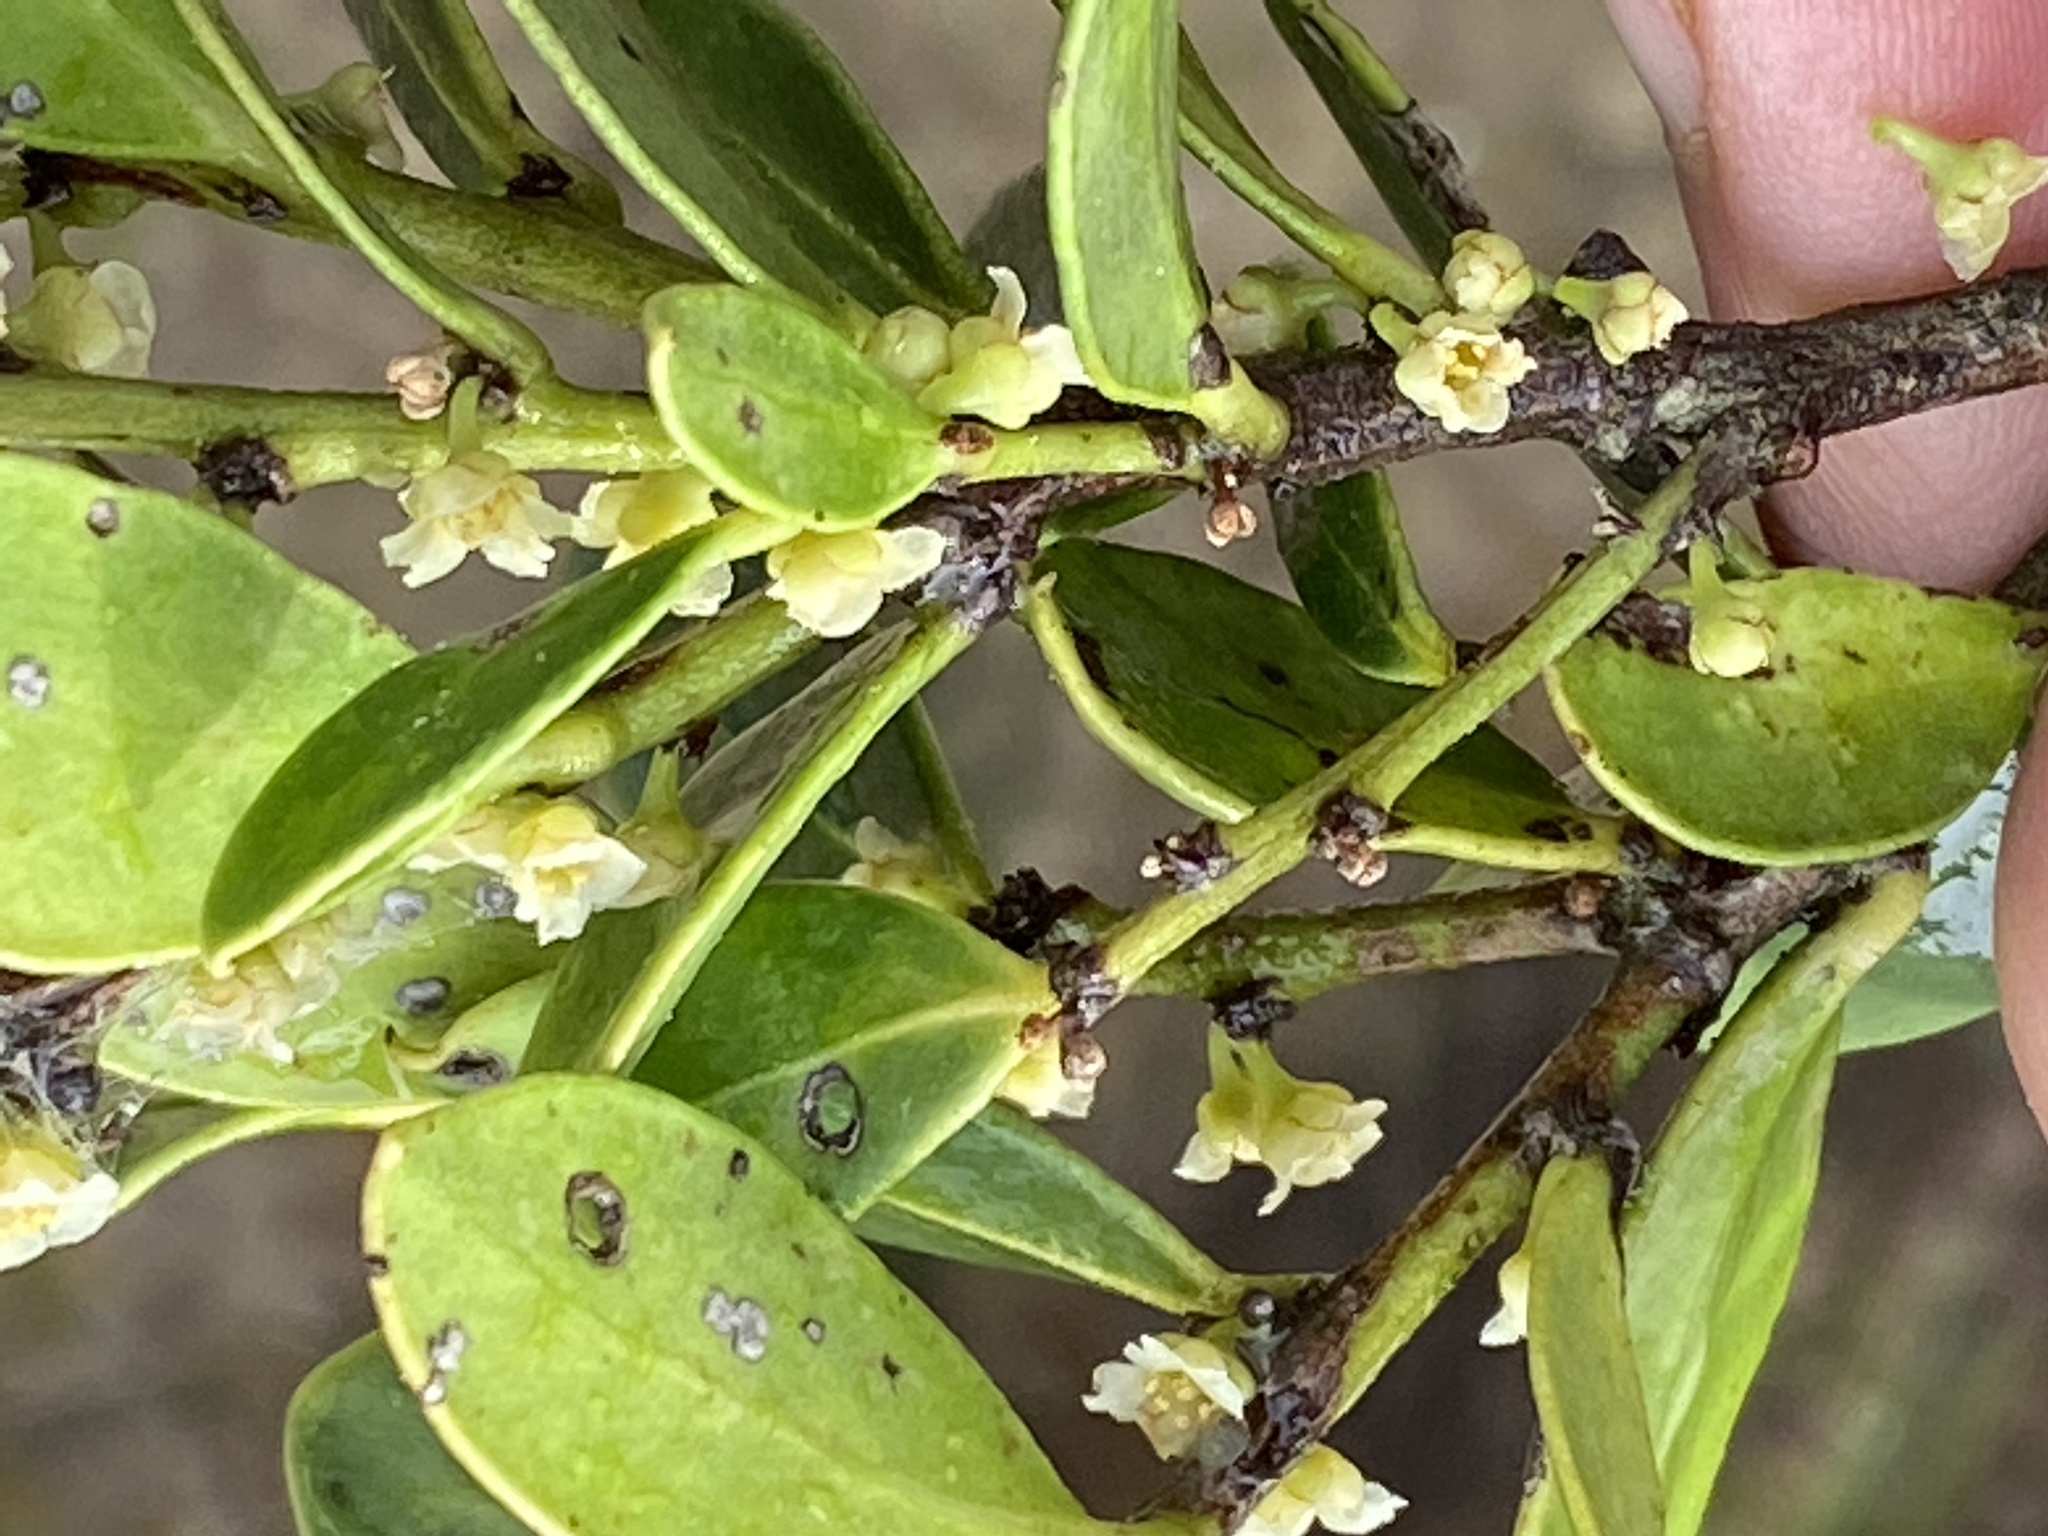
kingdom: Plantae
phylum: Tracheophyta
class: Magnoliopsida
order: Celastrales
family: Celastraceae
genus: Robsonodendron
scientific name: Robsonodendron maritimum
